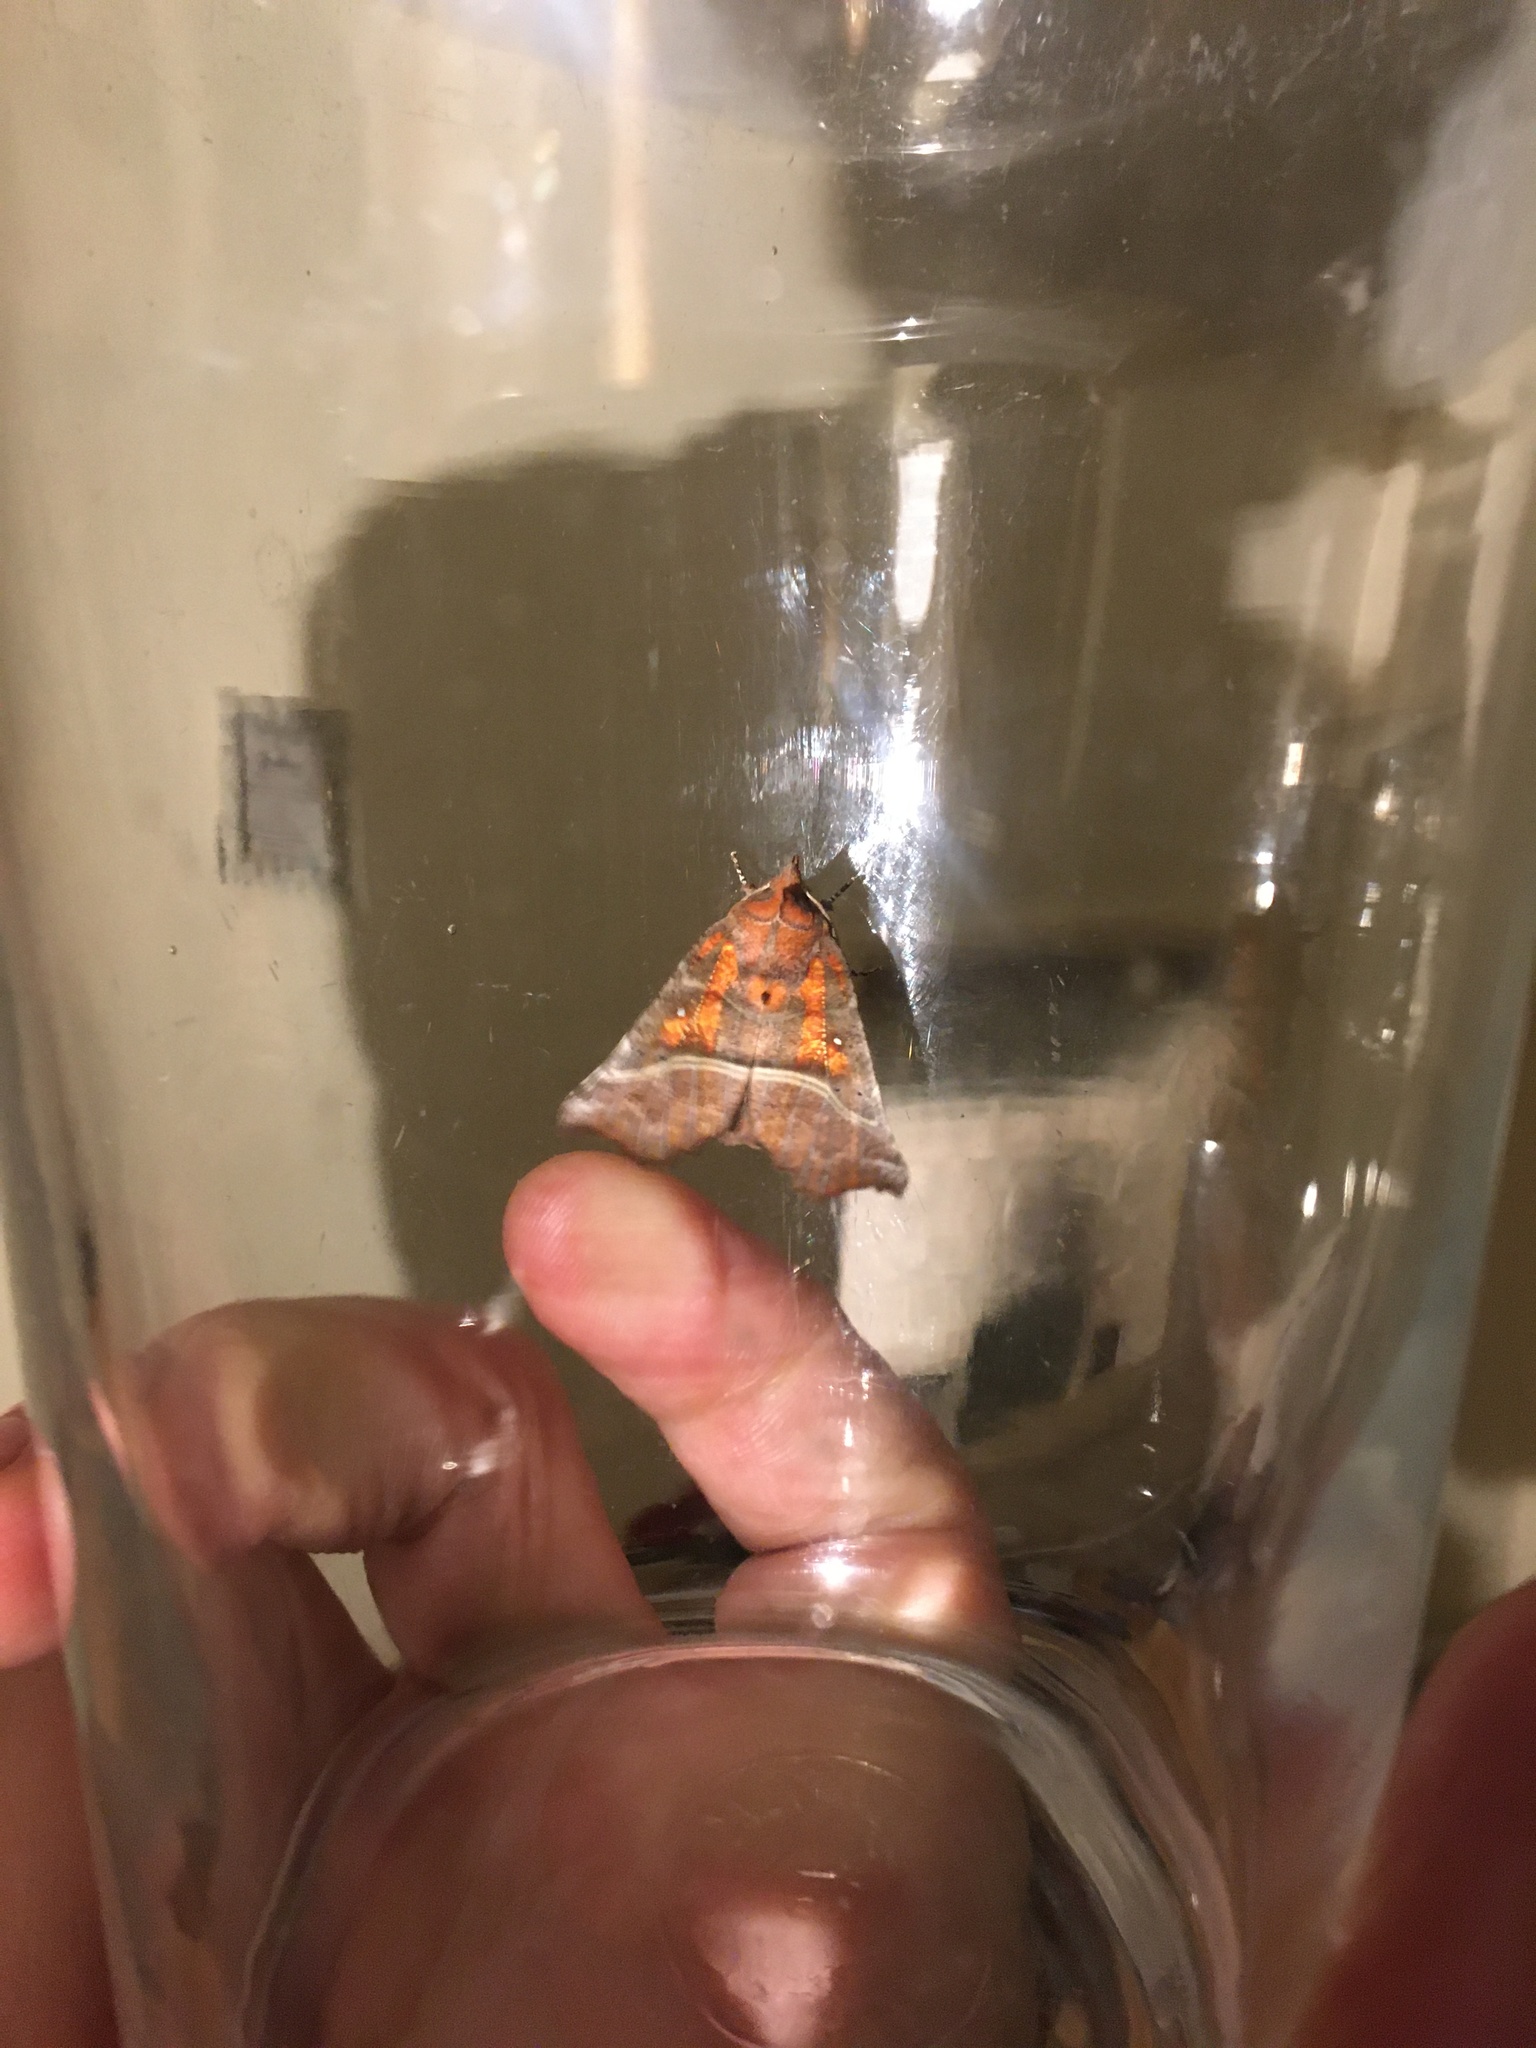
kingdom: Animalia
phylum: Arthropoda
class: Insecta
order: Lepidoptera
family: Erebidae
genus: Scoliopteryx
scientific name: Scoliopteryx libatrix
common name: Herald
